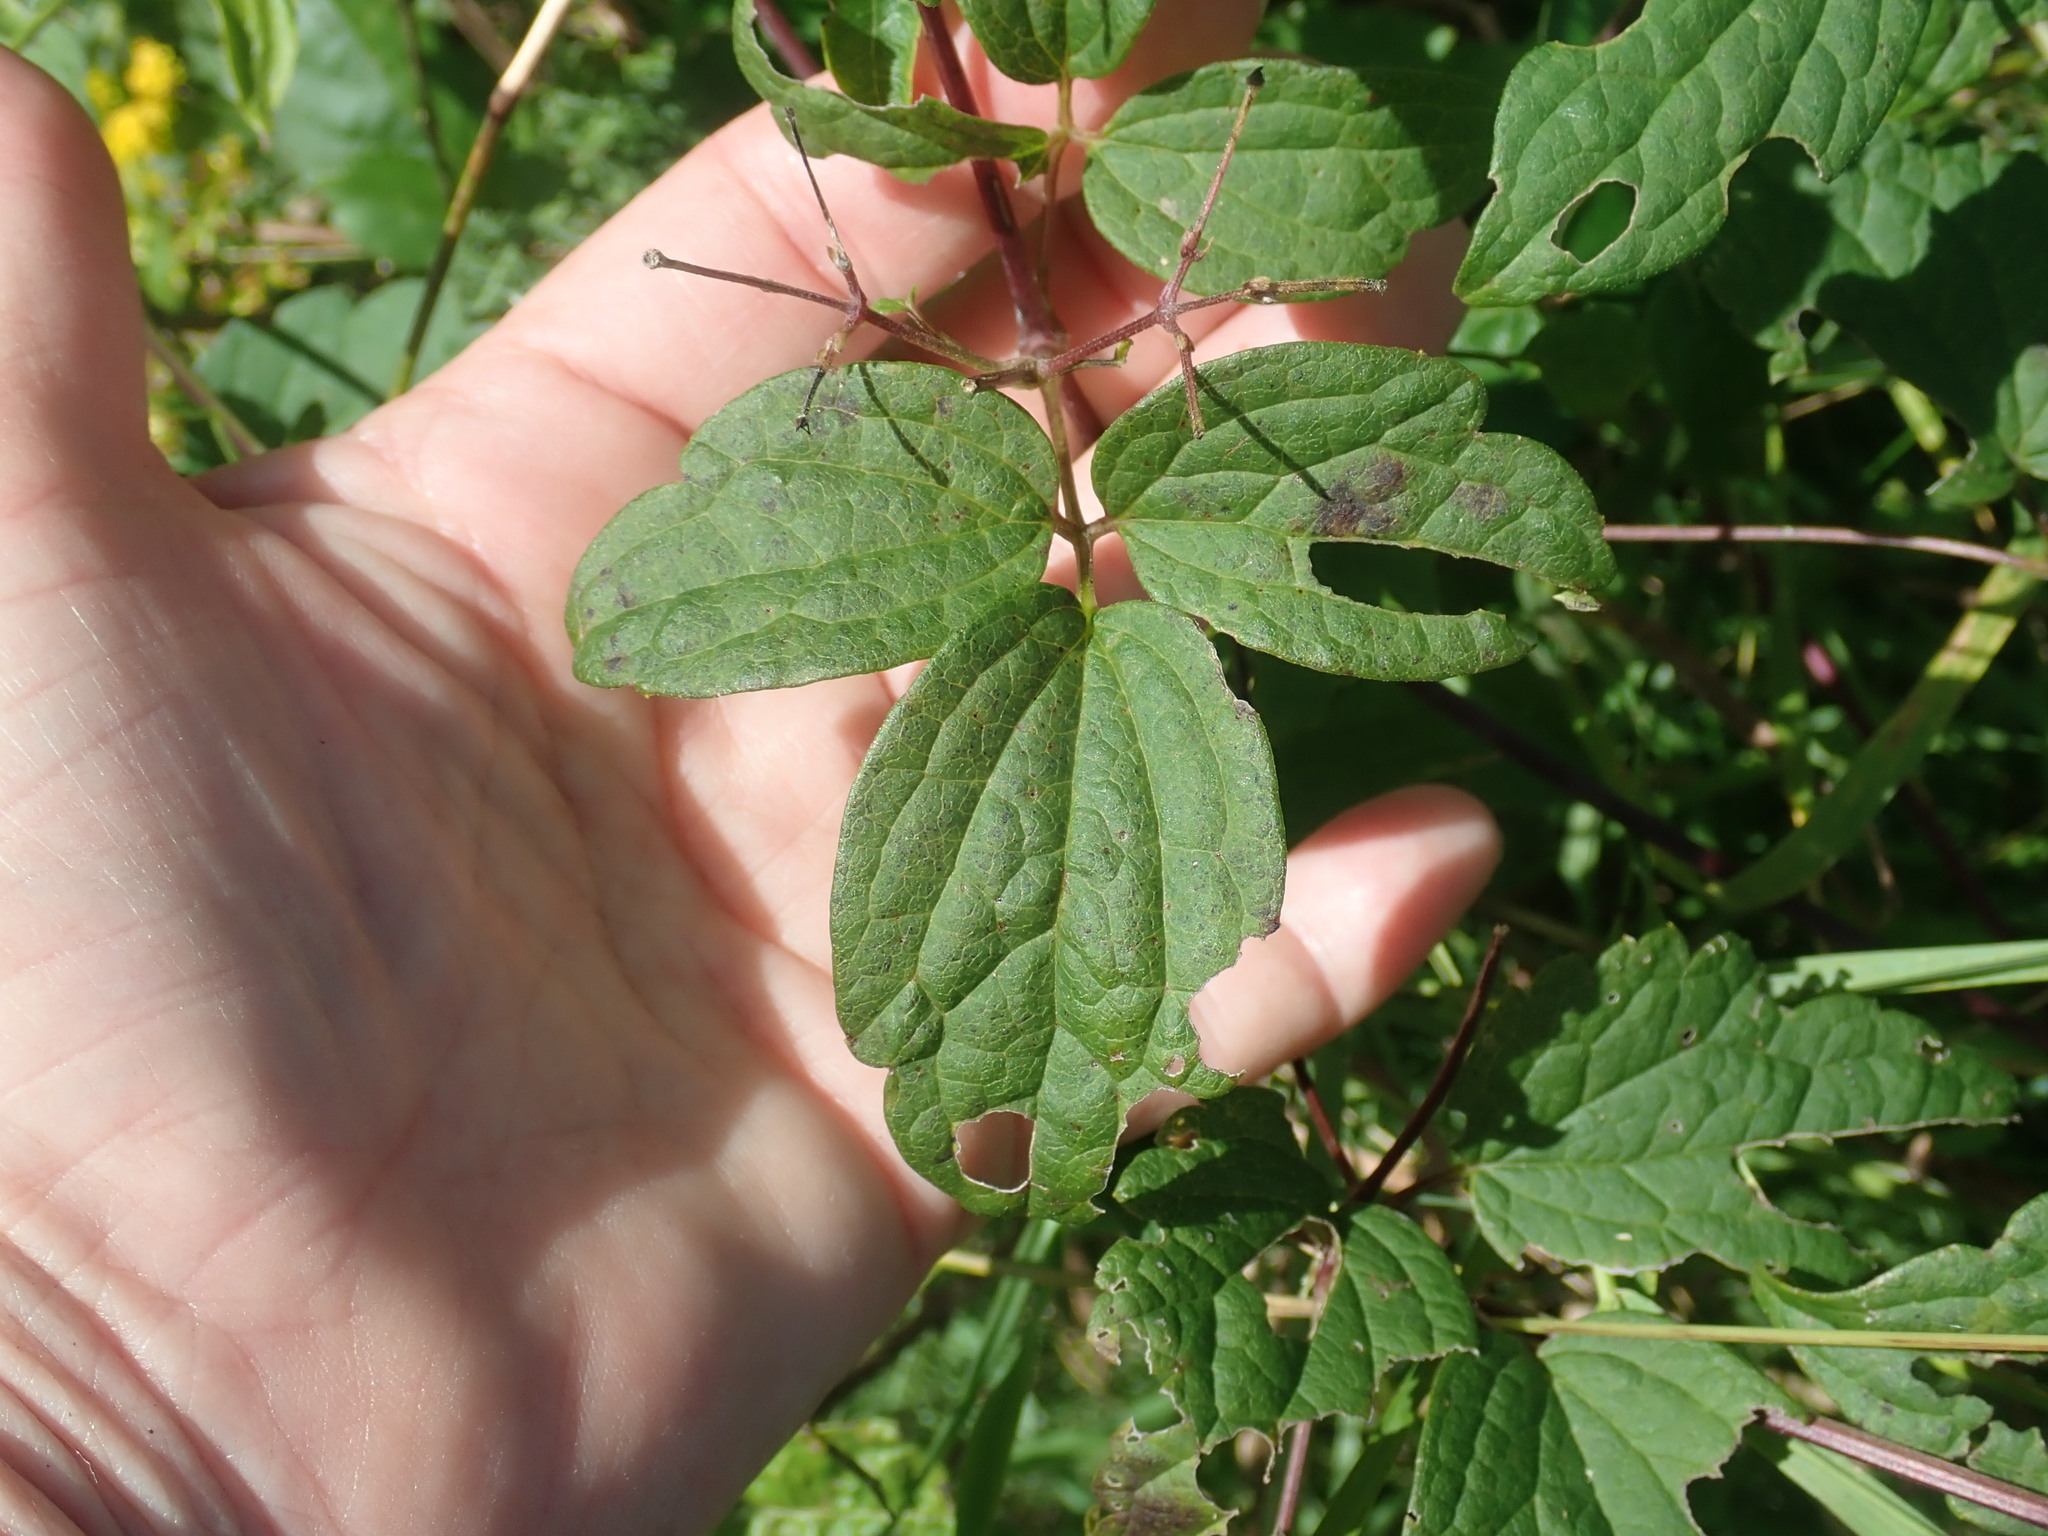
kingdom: Plantae
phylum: Tracheophyta
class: Magnoliopsida
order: Ranunculales
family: Ranunculaceae
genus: Clematis
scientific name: Clematis virginiana
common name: Virgin's-bower
